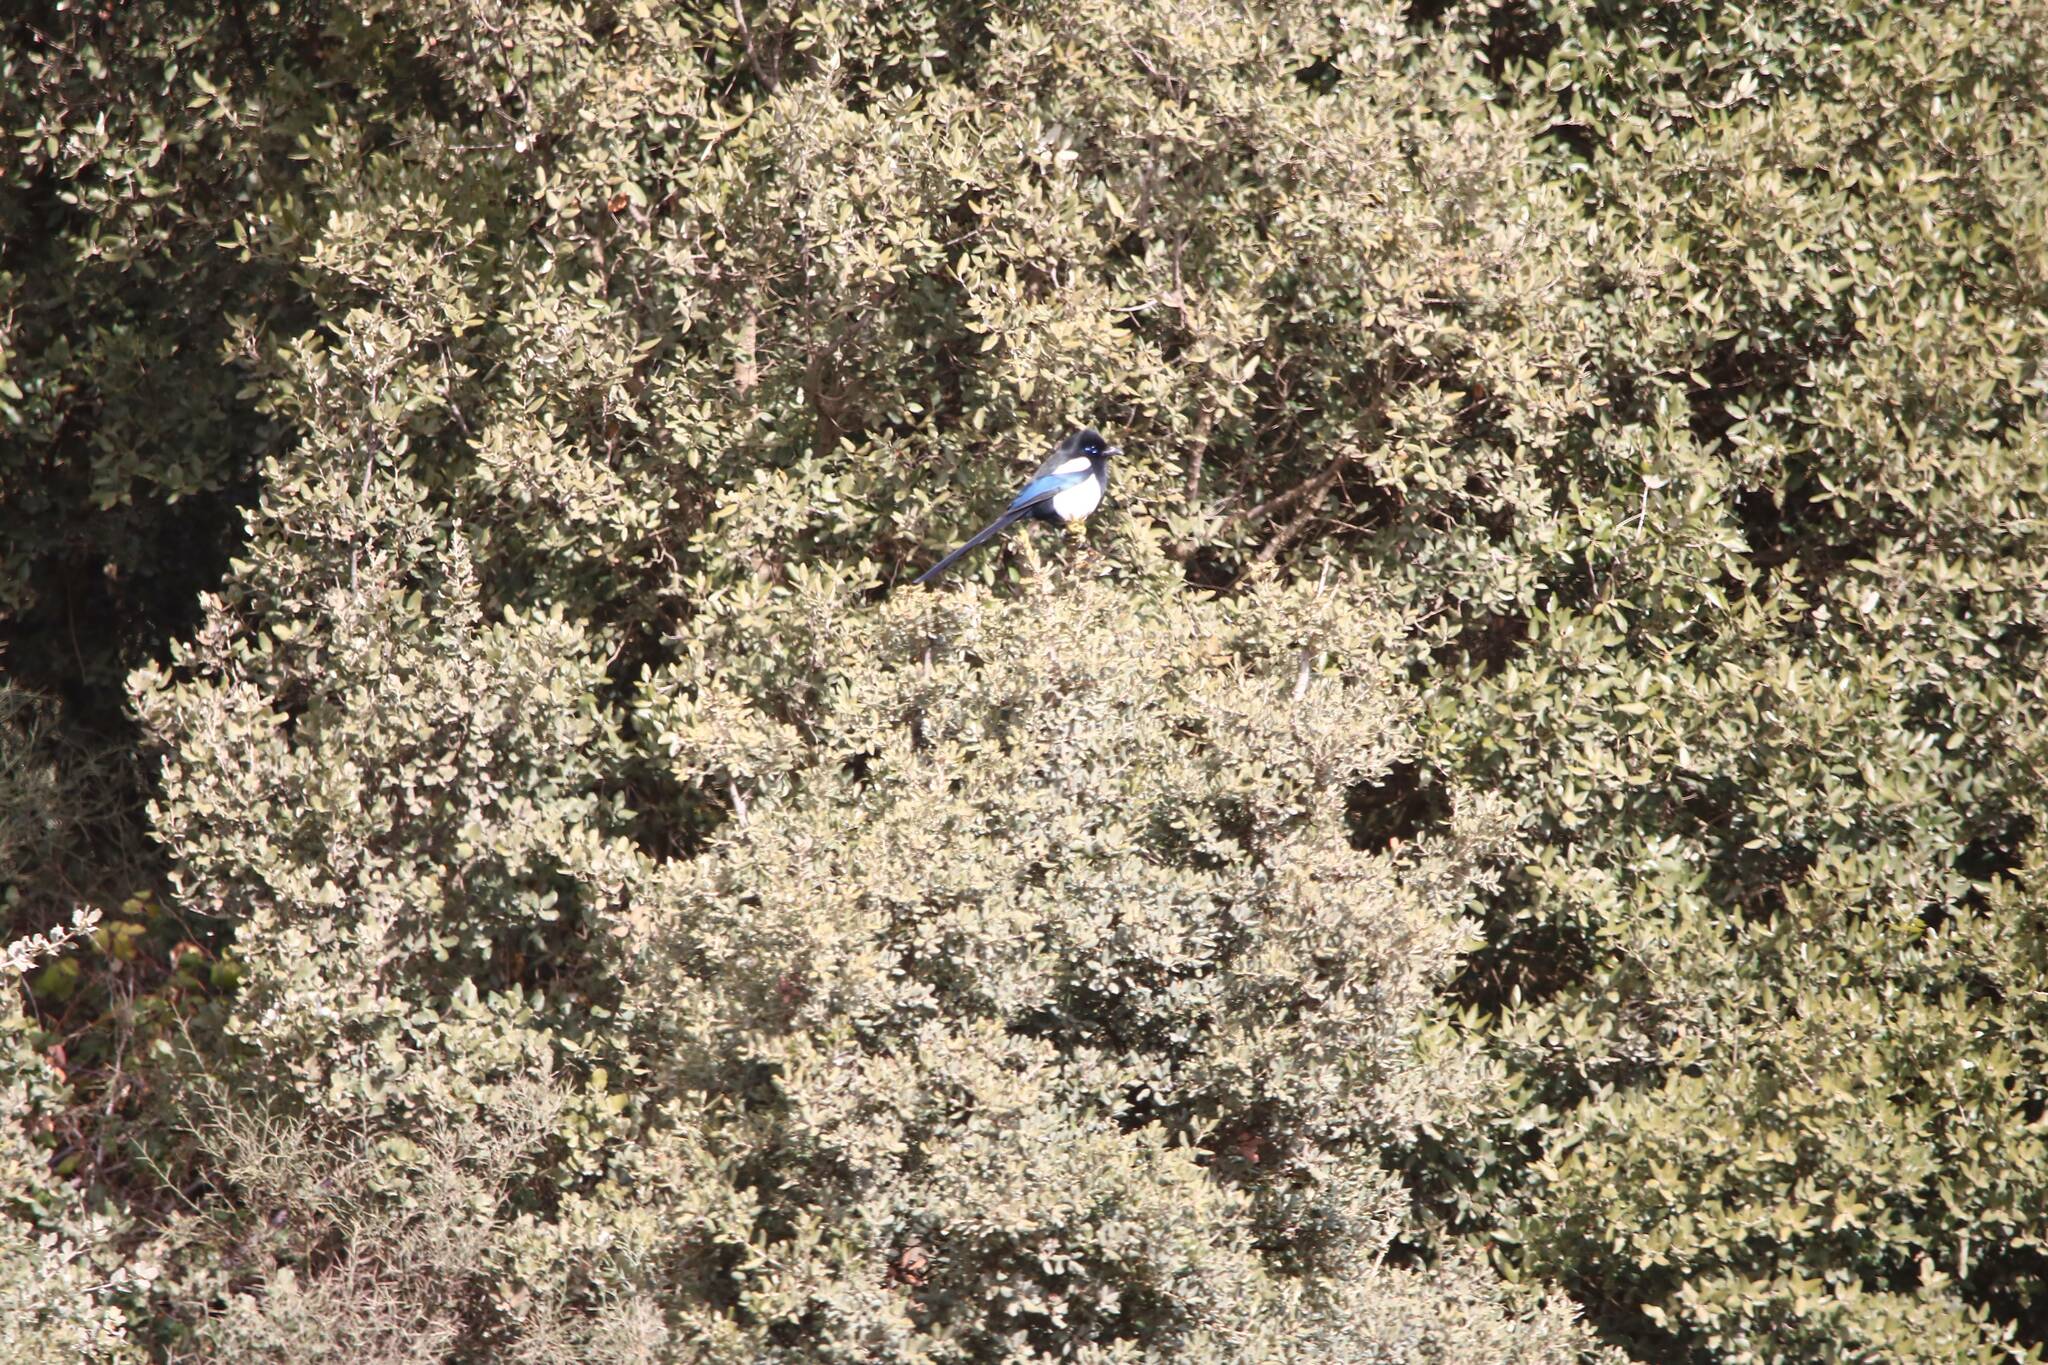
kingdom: Animalia
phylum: Chordata
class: Aves
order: Passeriformes
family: Corvidae
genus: Pica
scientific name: Pica mauritanica
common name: Maghreb magpie
